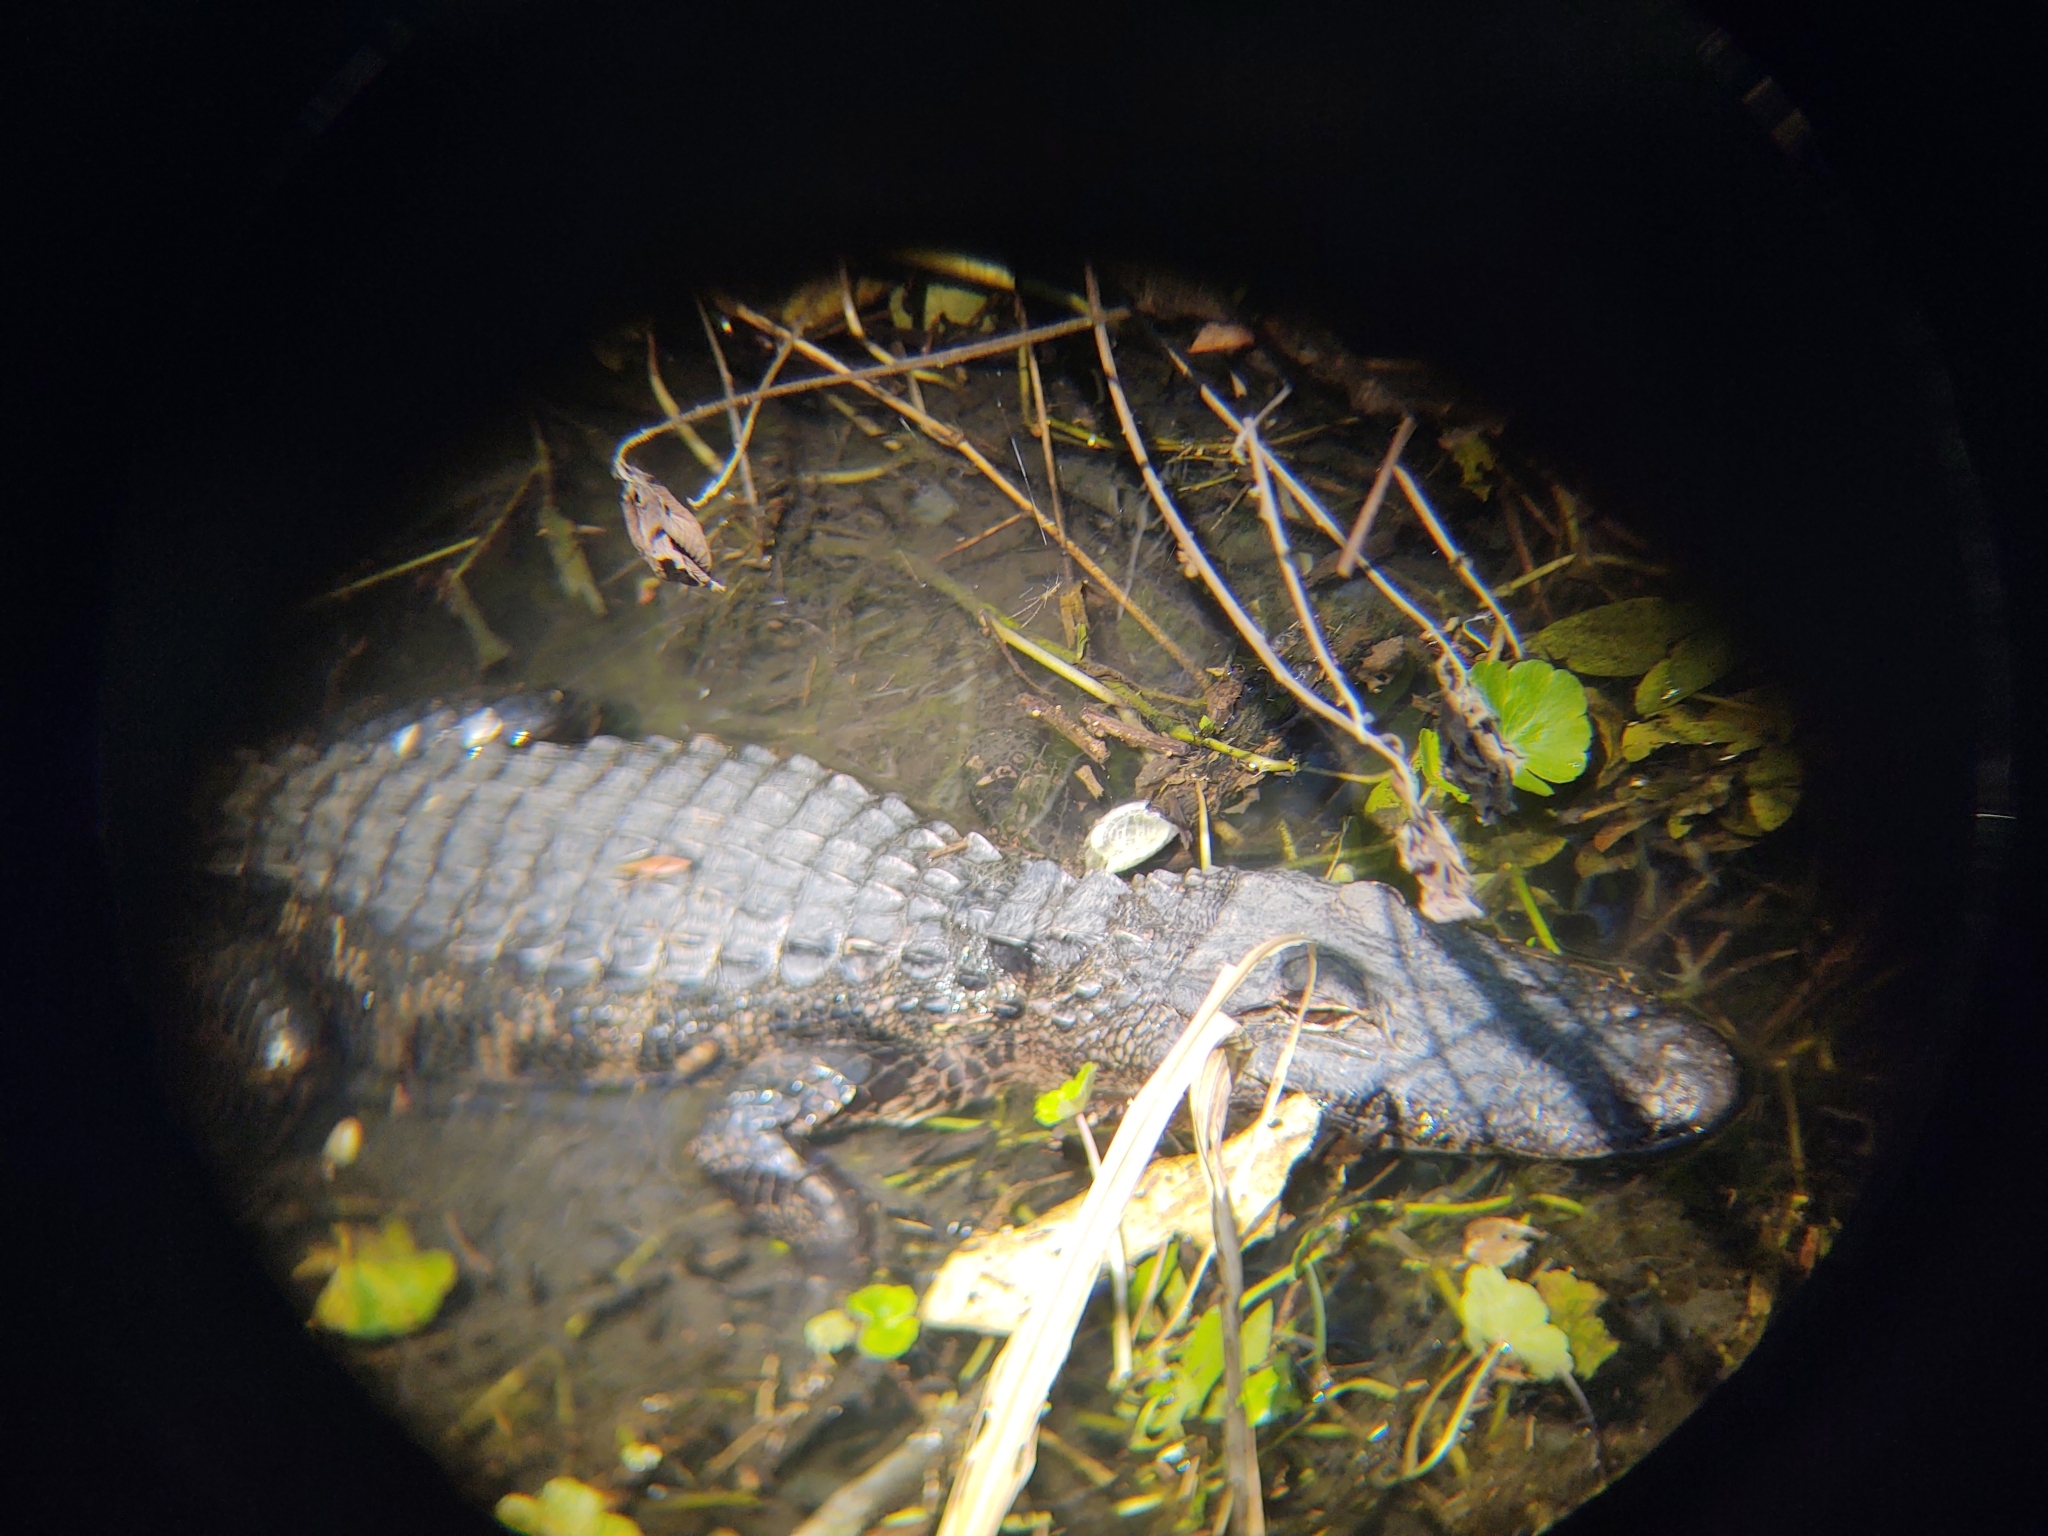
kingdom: Animalia
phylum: Chordata
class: Crocodylia
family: Alligatoridae
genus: Alligator
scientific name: Alligator mississippiensis
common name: American alligator
